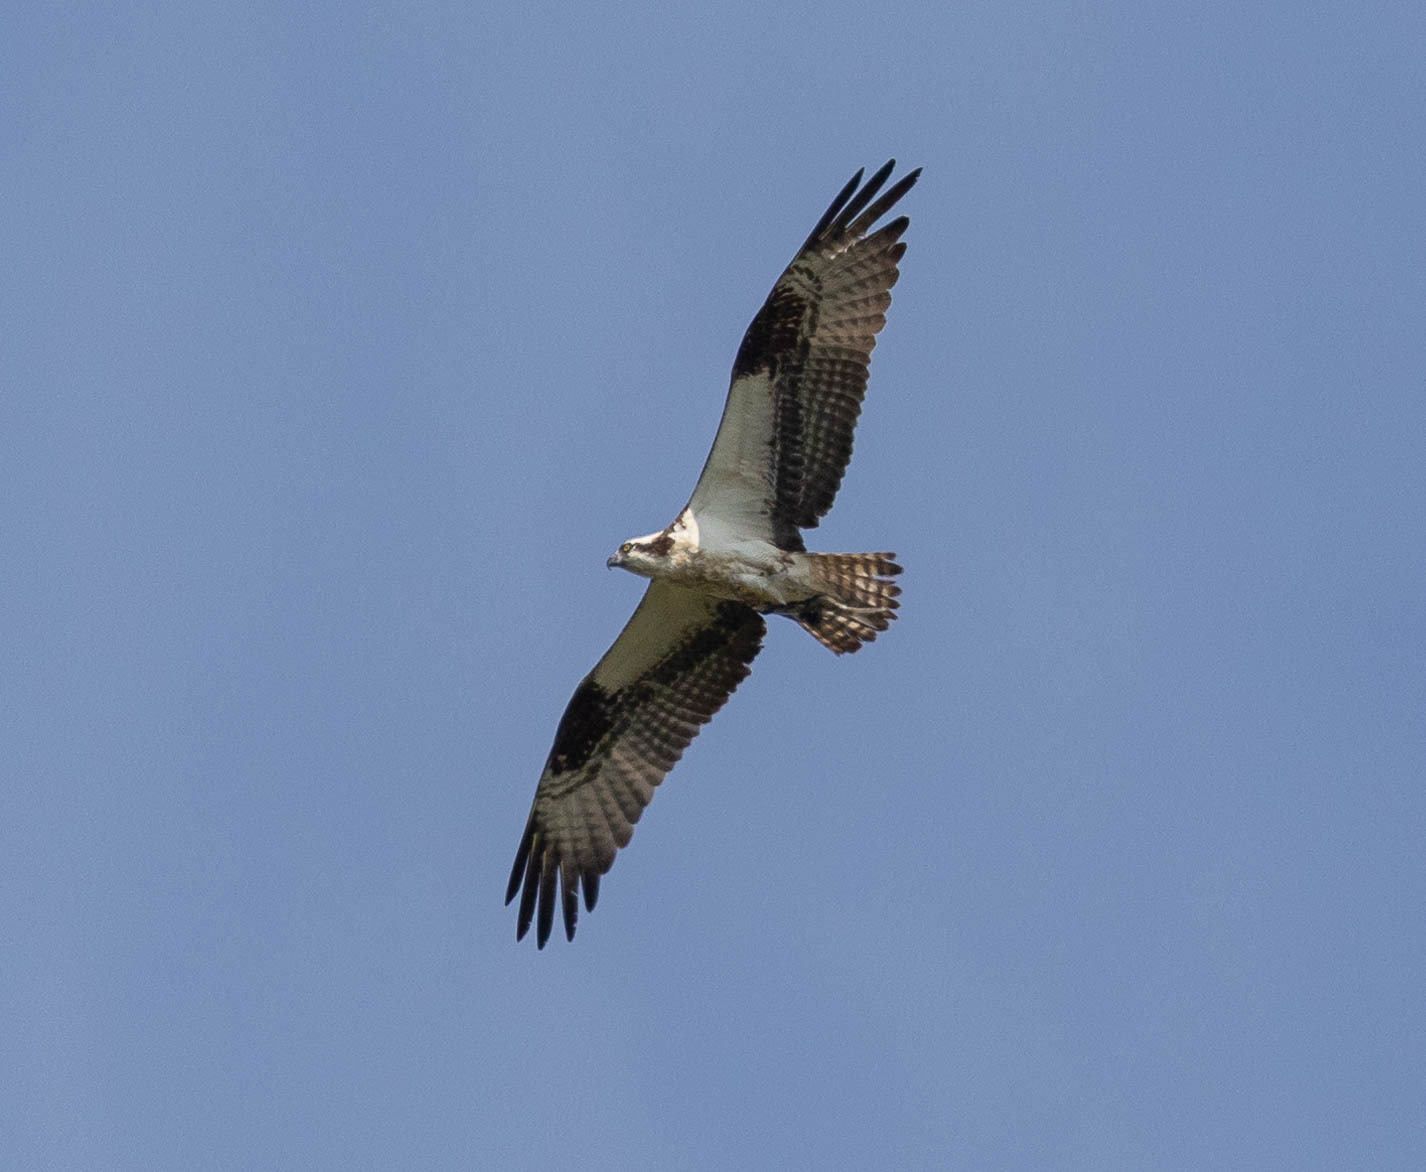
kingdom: Animalia
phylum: Chordata
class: Aves
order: Accipitriformes
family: Pandionidae
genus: Pandion
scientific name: Pandion haliaetus
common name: Osprey
